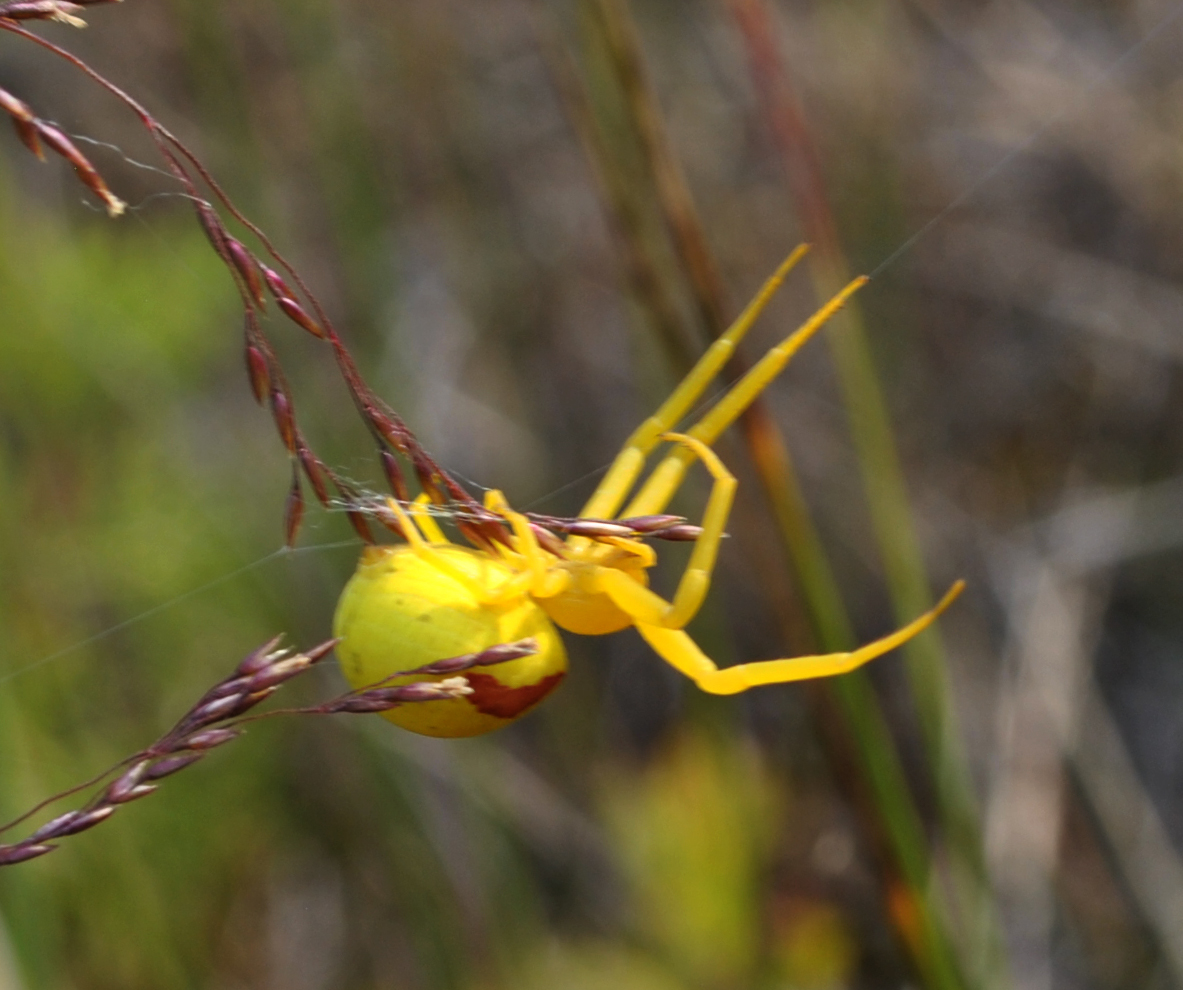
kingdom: Animalia
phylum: Arthropoda
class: Arachnida
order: Araneae
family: Thomisidae
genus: Misumena
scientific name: Misumena vatia
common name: Goldenrod crab spider
